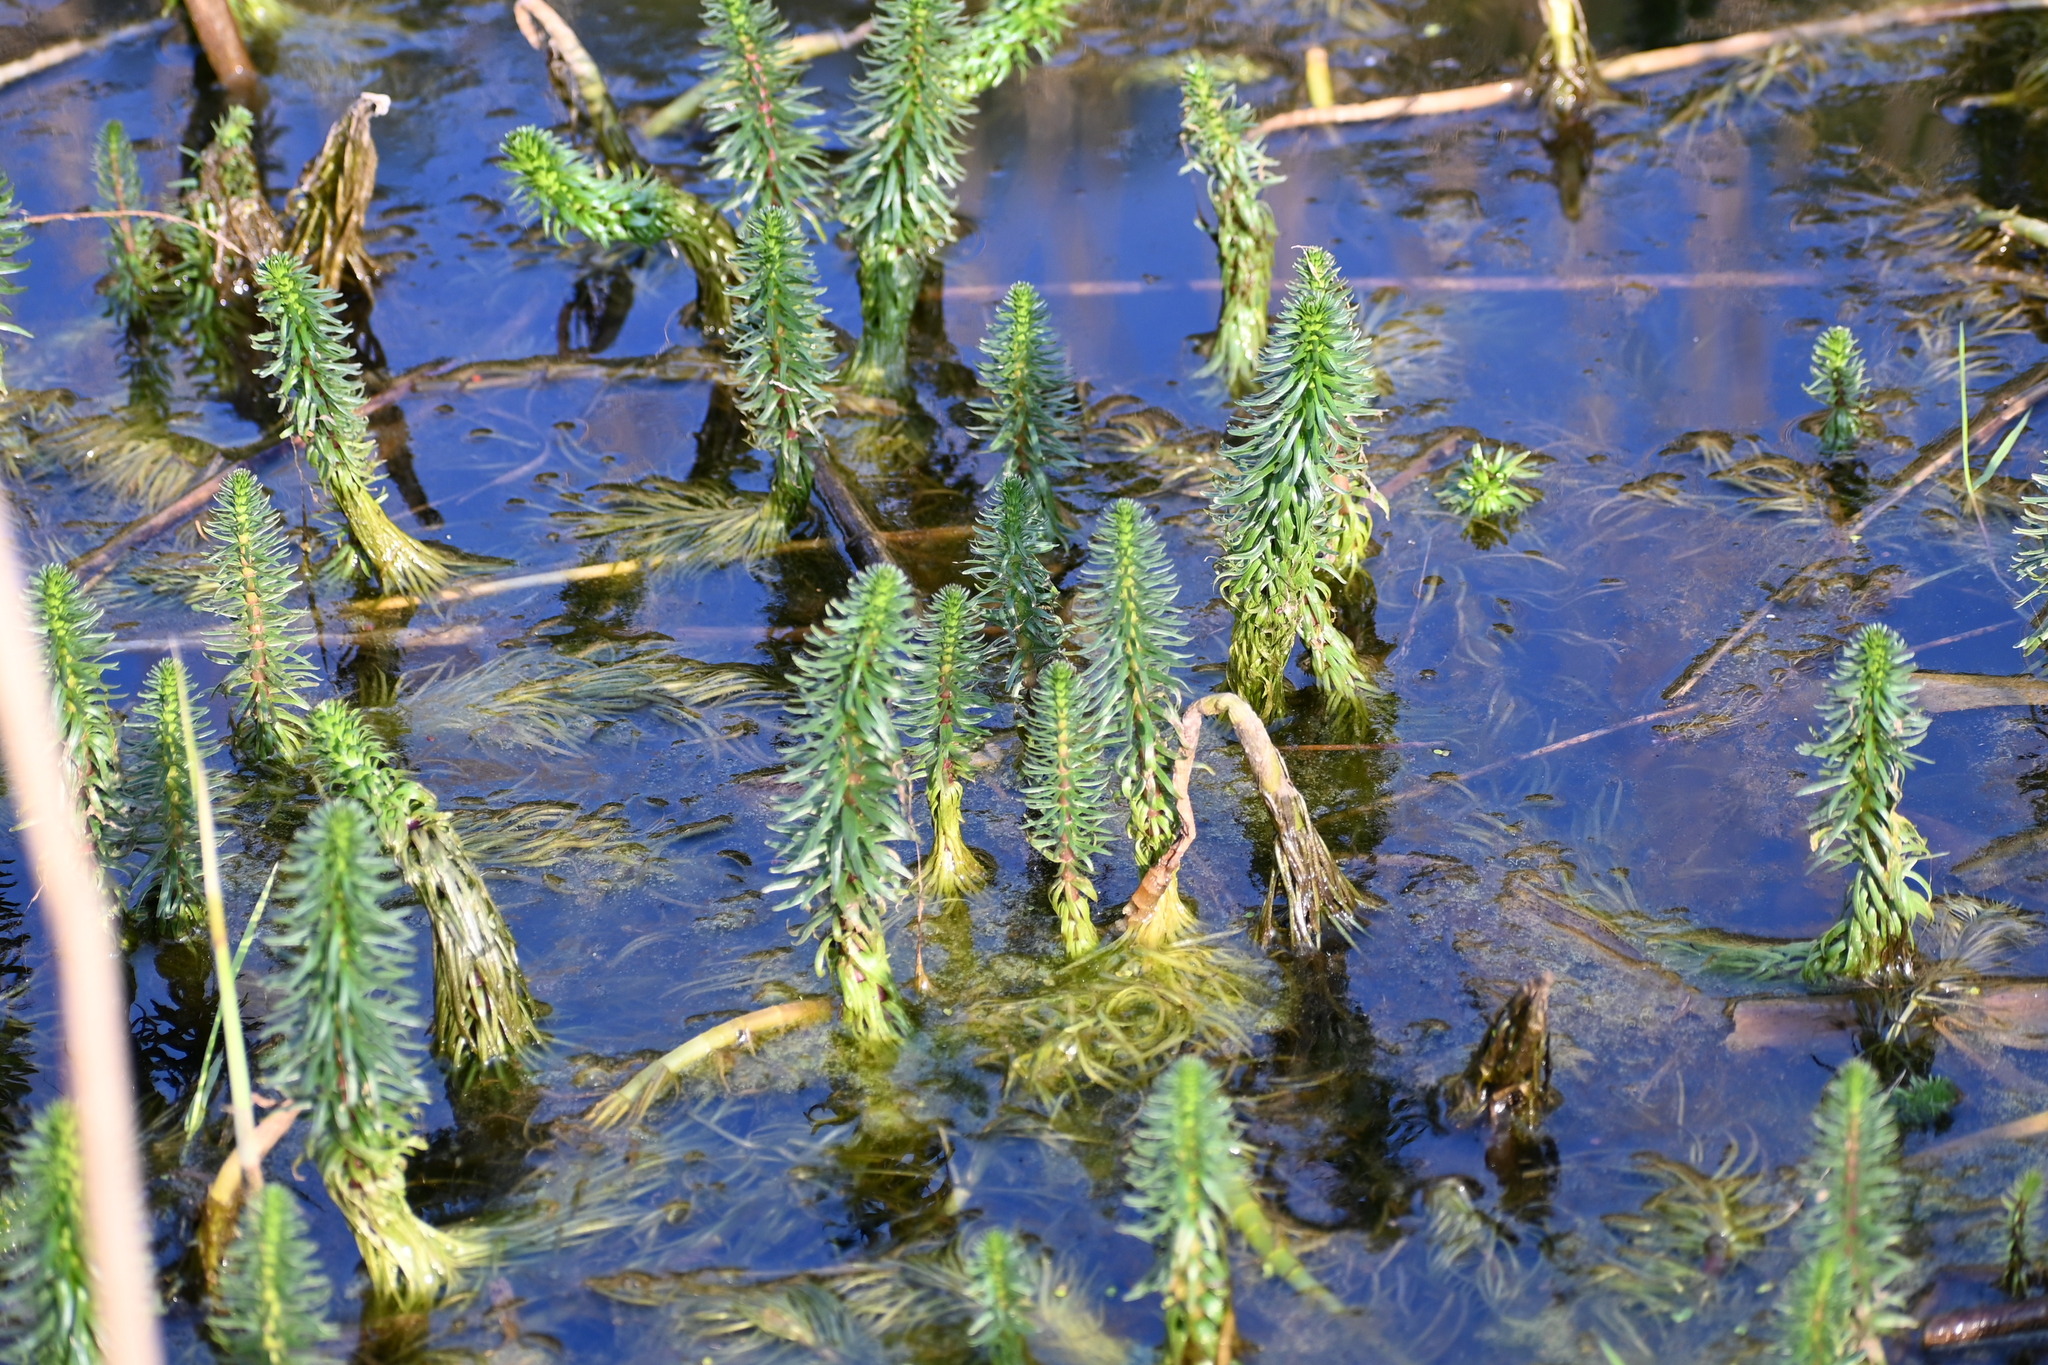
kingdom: Plantae
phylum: Tracheophyta
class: Magnoliopsida
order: Lamiales
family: Plantaginaceae
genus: Hippuris
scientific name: Hippuris vulgaris
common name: Mare's-tail
